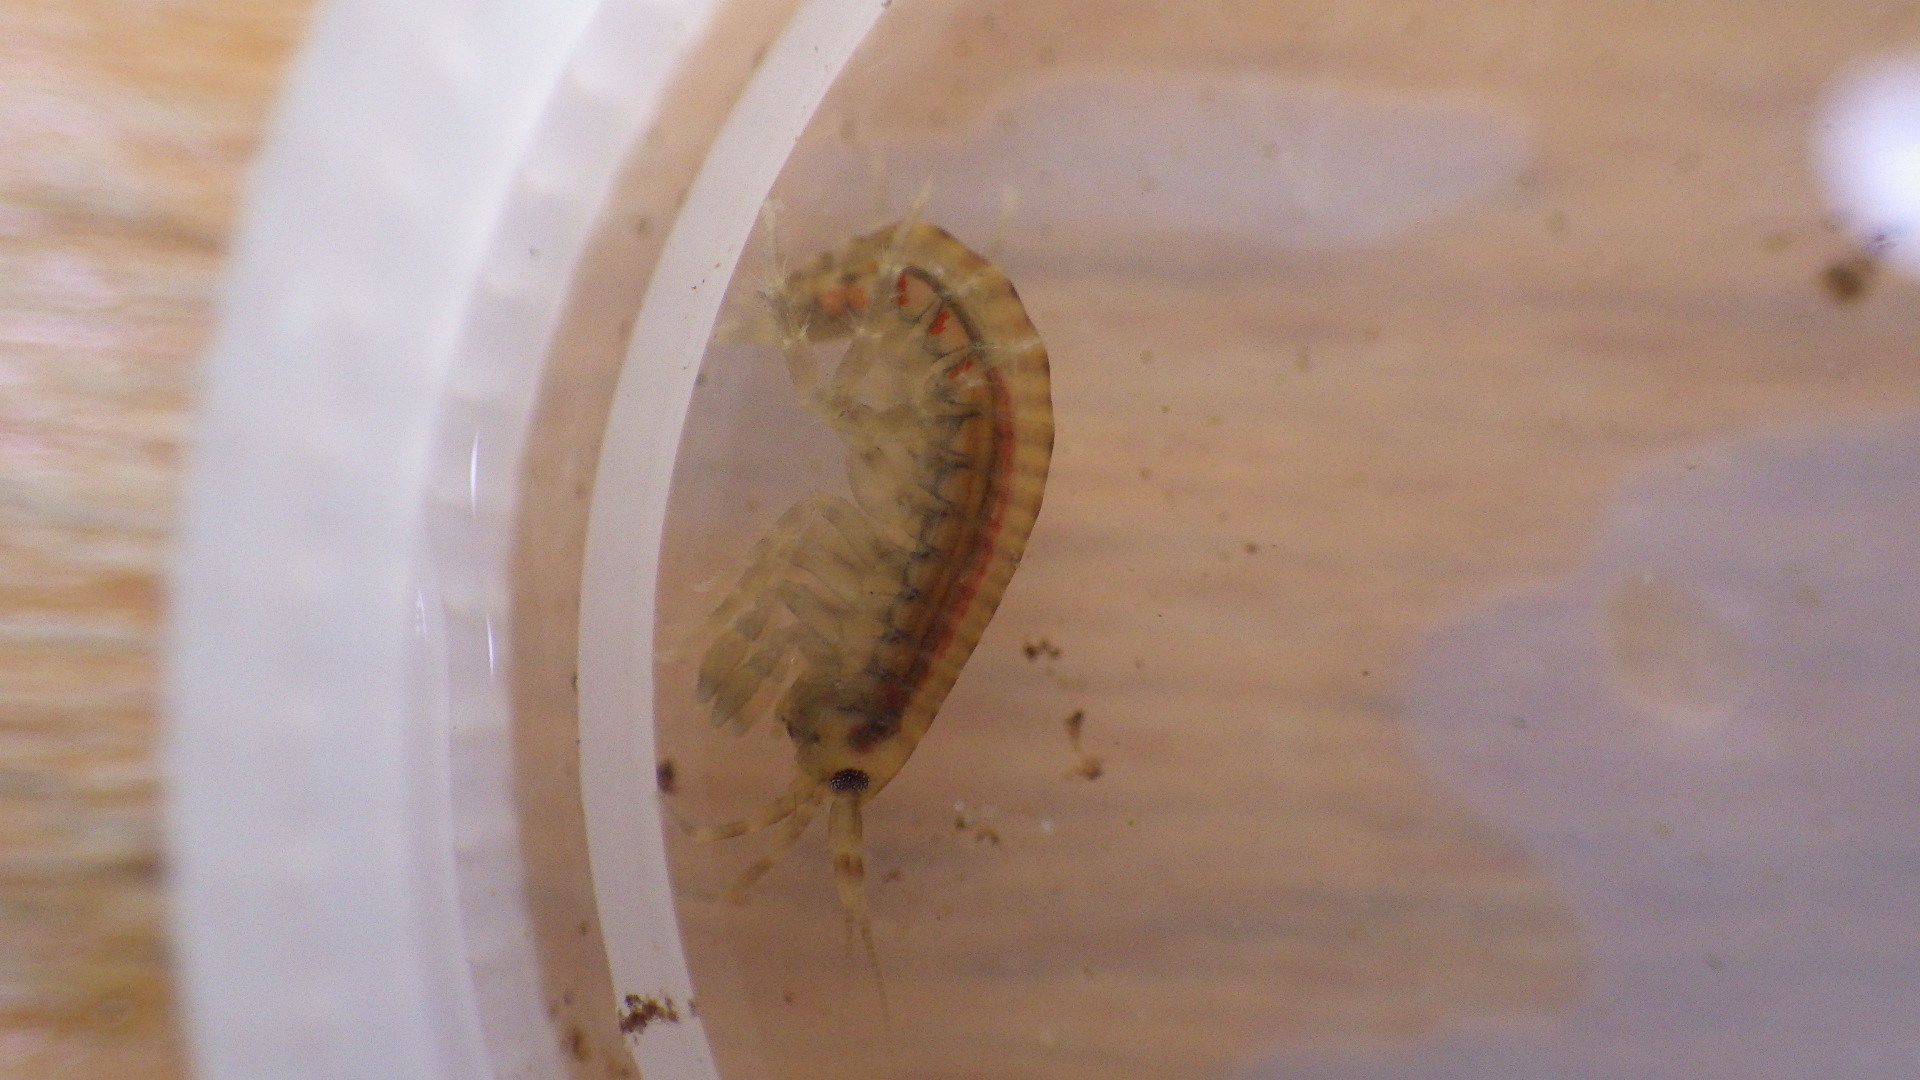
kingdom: Animalia
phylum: Arthropoda
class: Malacostraca
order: Amphipoda
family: Gammaridae
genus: Gammarus
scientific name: Gammarus fasciatus
